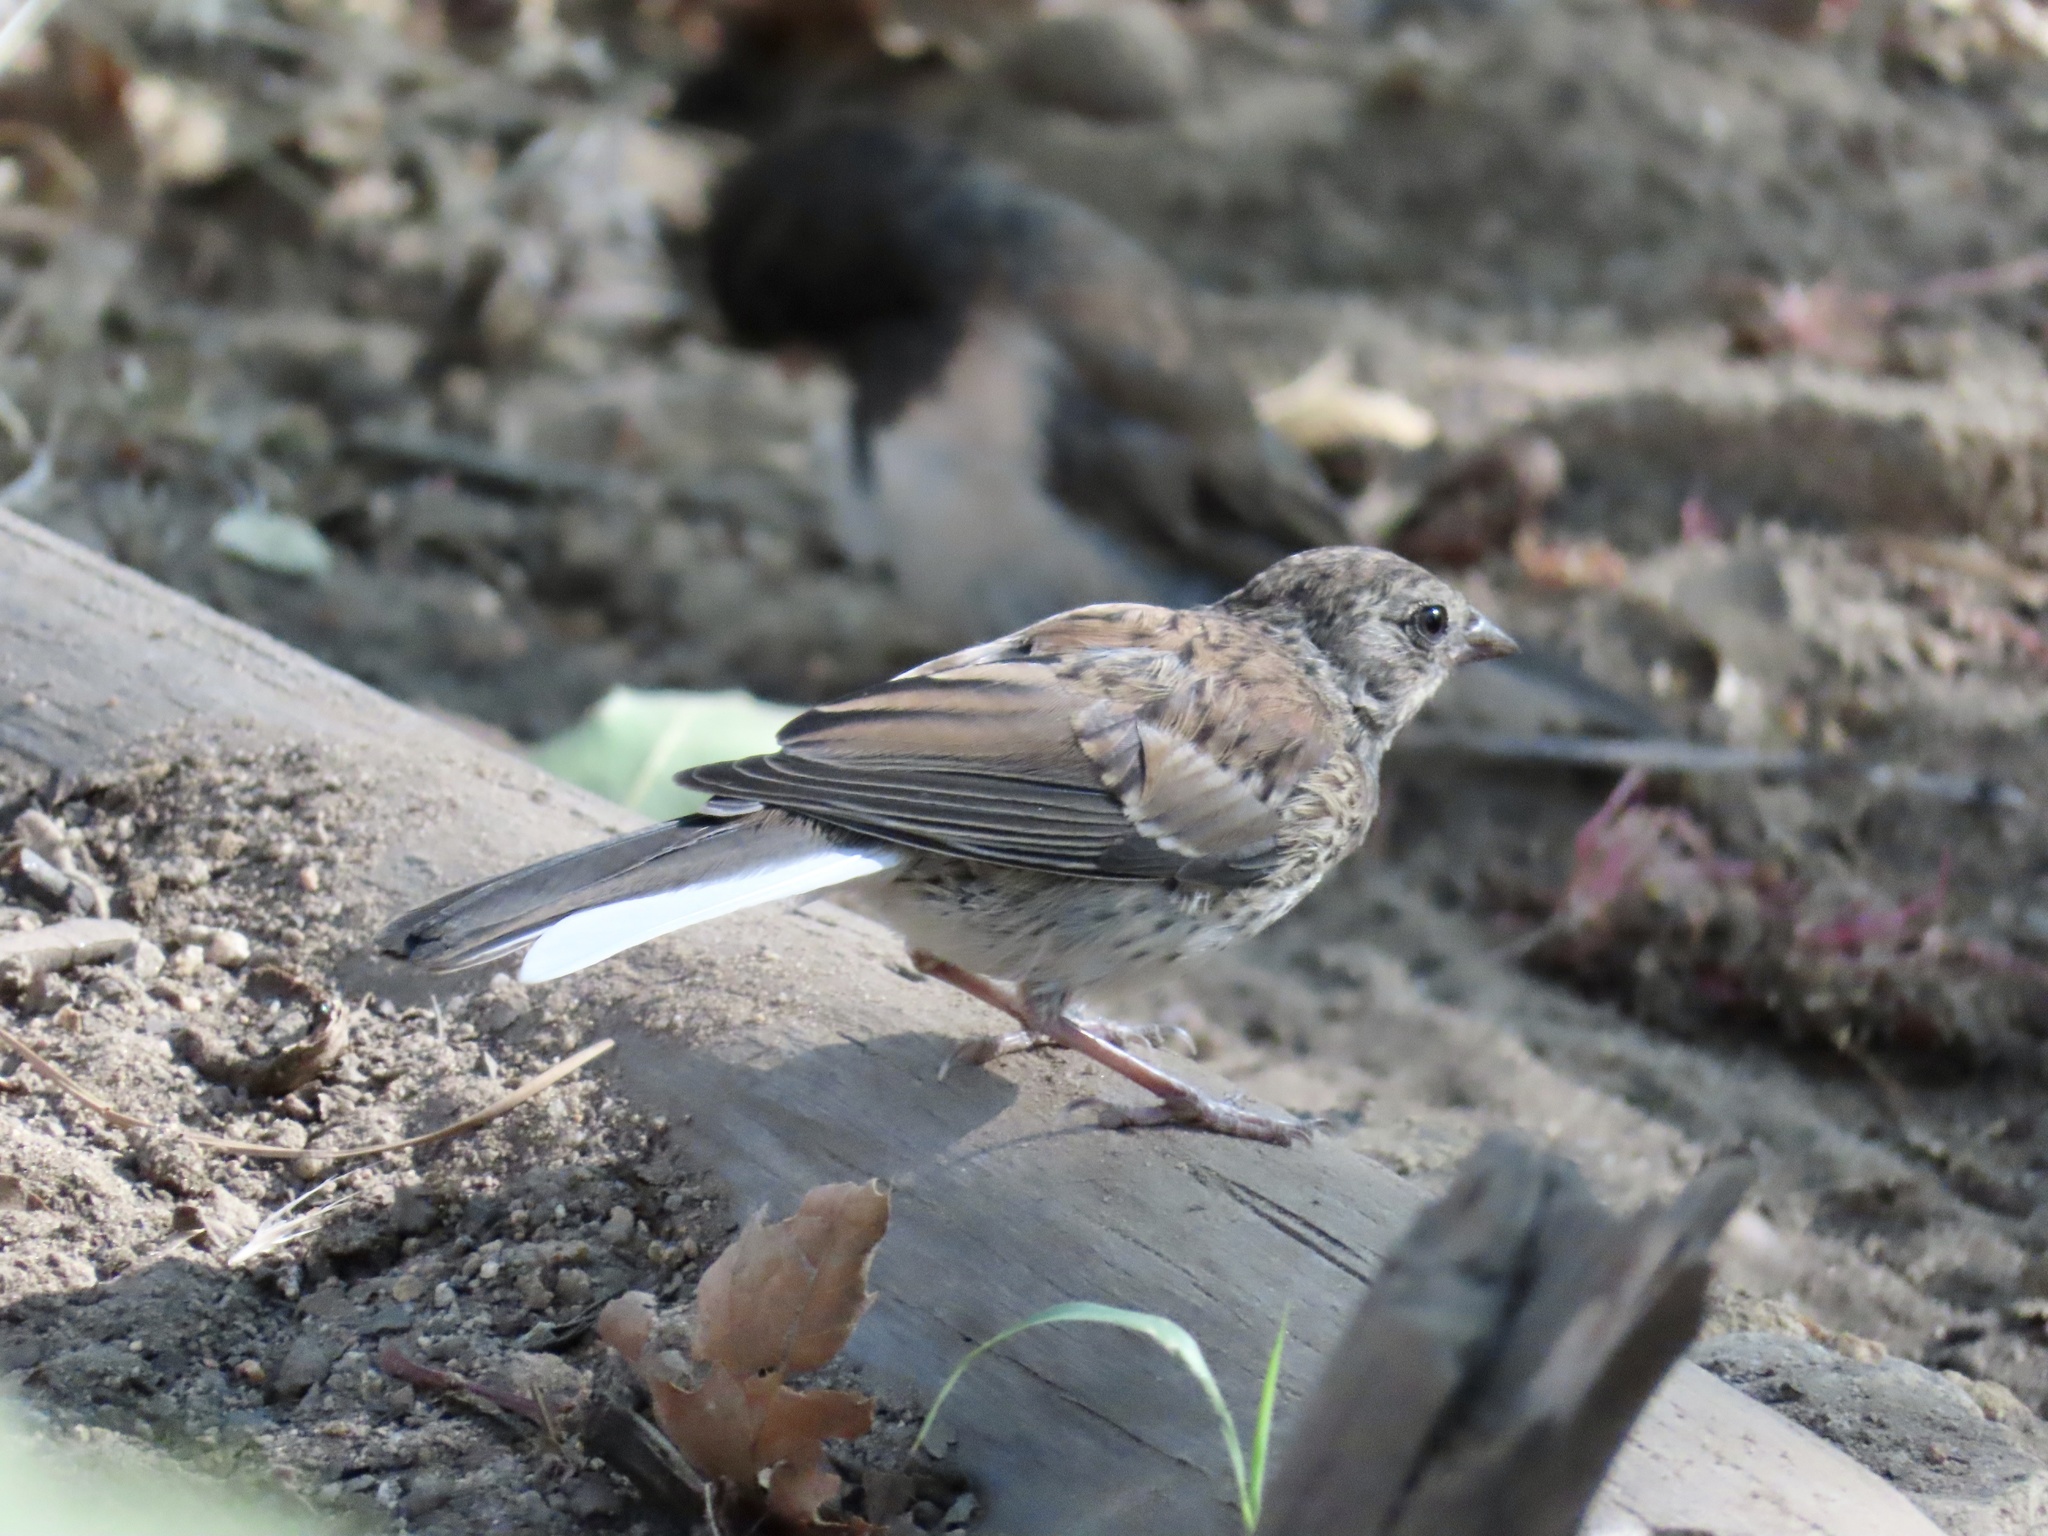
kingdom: Animalia
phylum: Chordata
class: Aves
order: Passeriformes
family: Passerellidae
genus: Junco
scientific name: Junco hyemalis
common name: Dark-eyed junco
